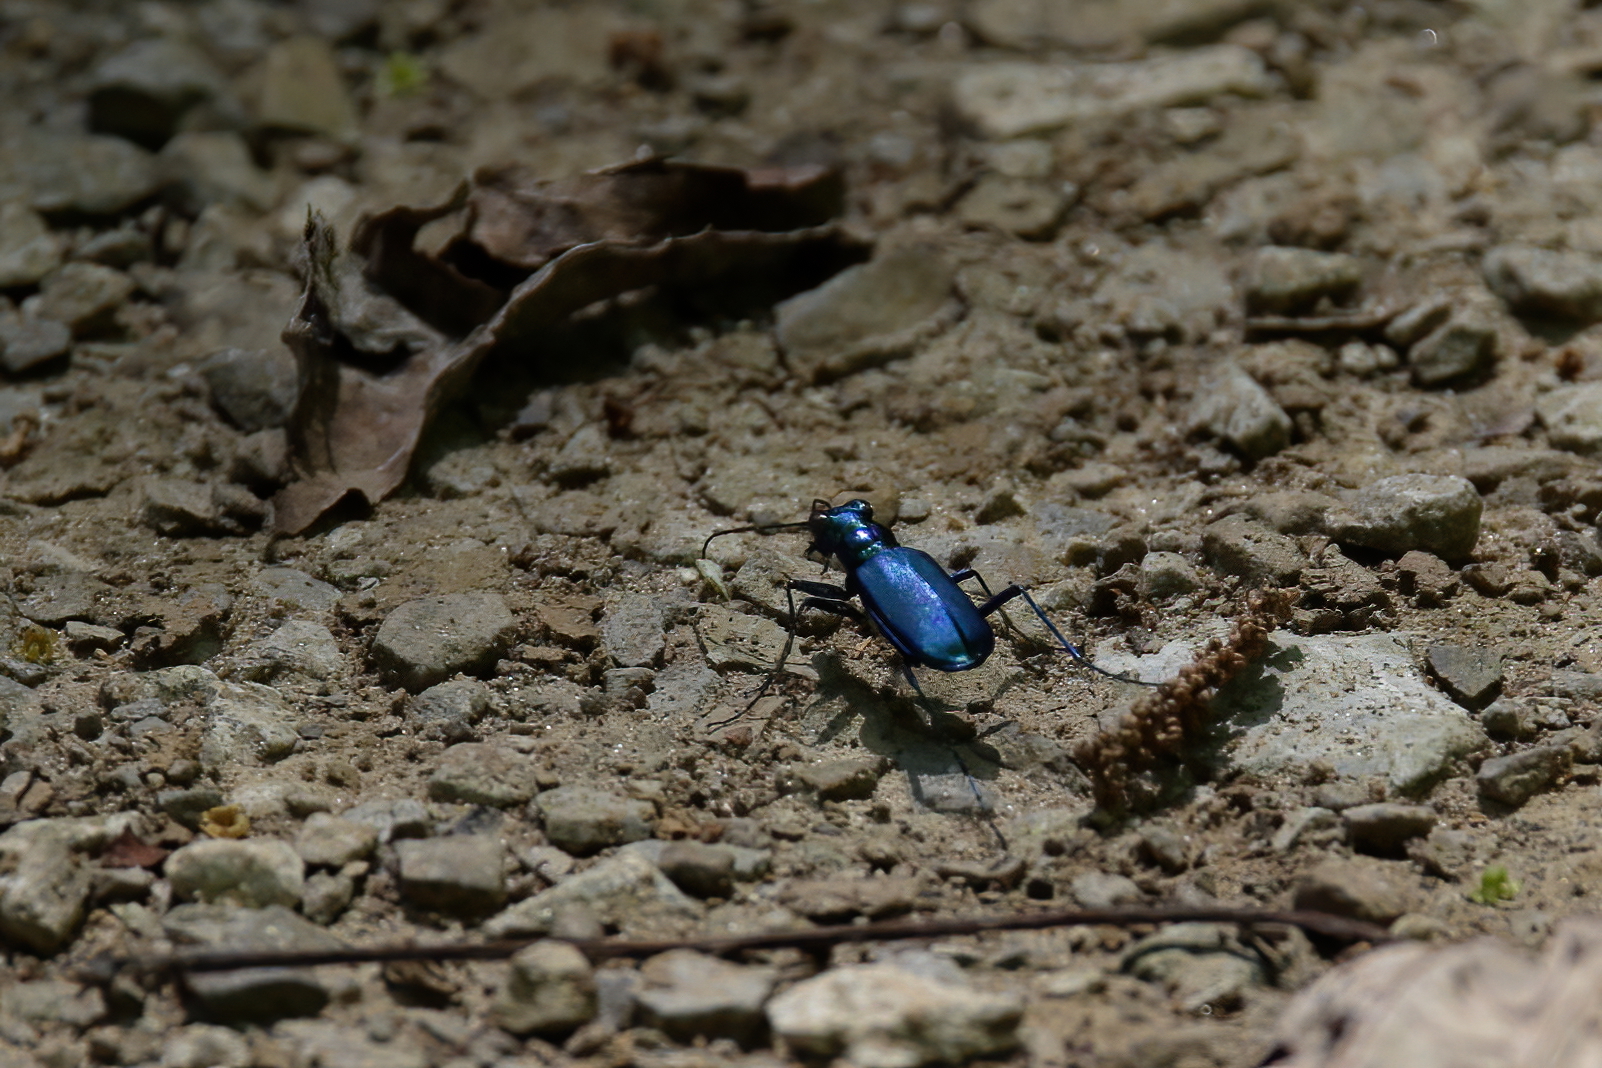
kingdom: Animalia
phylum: Arthropoda
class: Insecta
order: Coleoptera
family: Carabidae
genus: Cicindela
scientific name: Cicindela sexguttata
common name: Six-spotted tiger beetle
